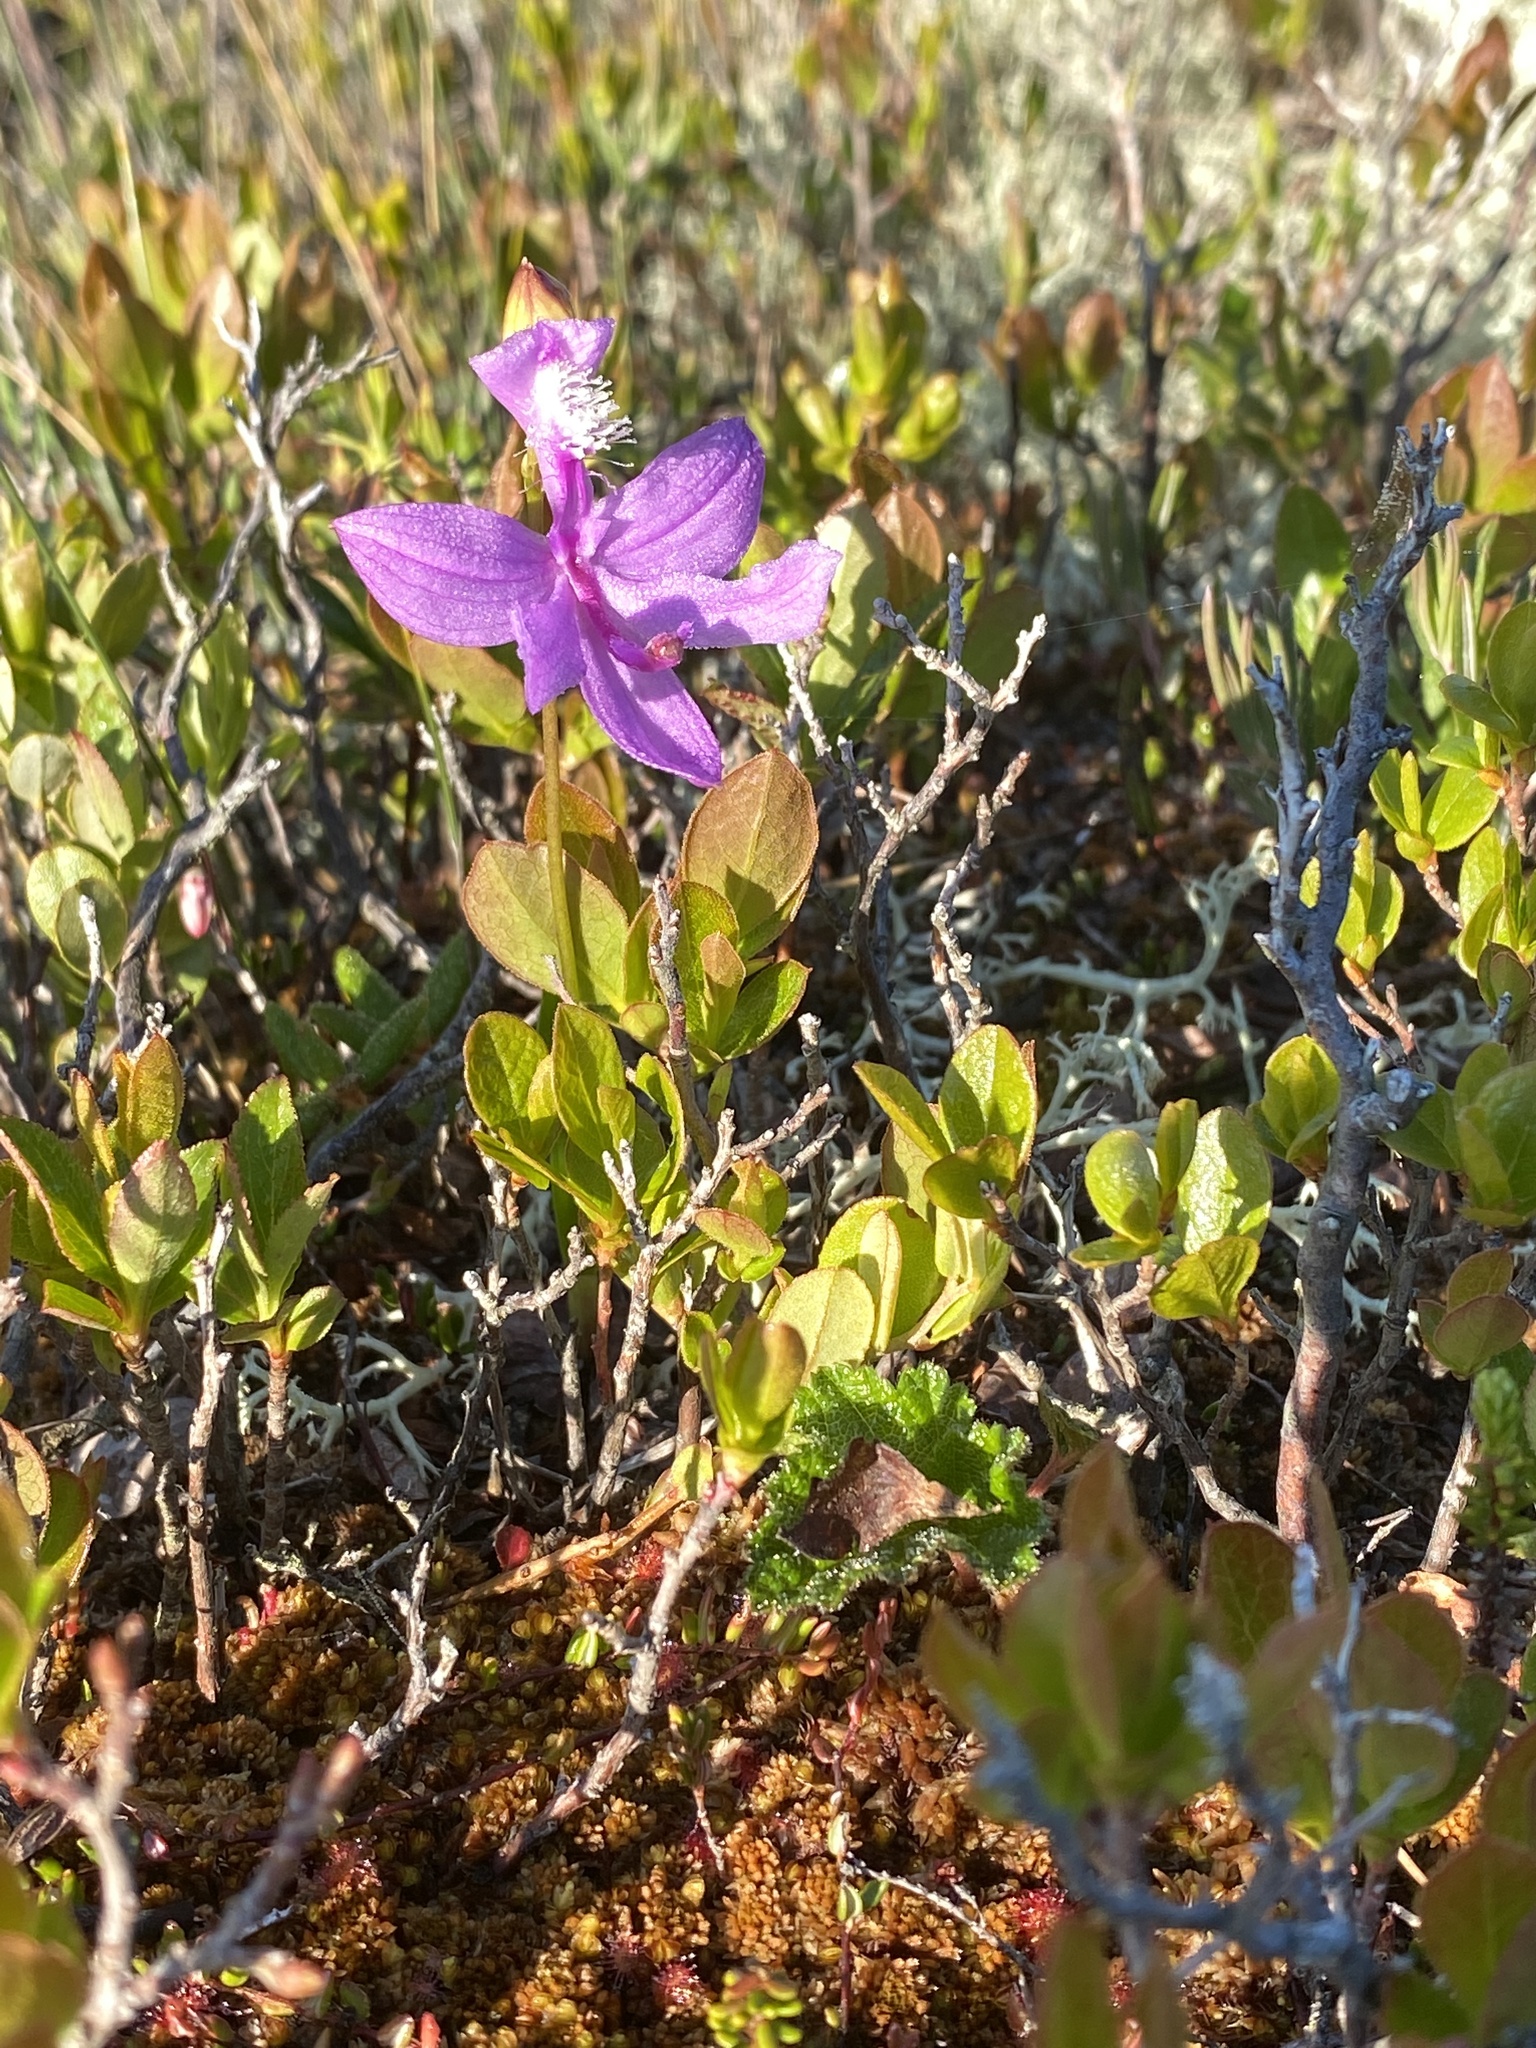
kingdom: Plantae
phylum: Tracheophyta
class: Liliopsida
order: Asparagales
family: Orchidaceae
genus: Calopogon
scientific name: Calopogon tuberosus
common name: Grass-pink
